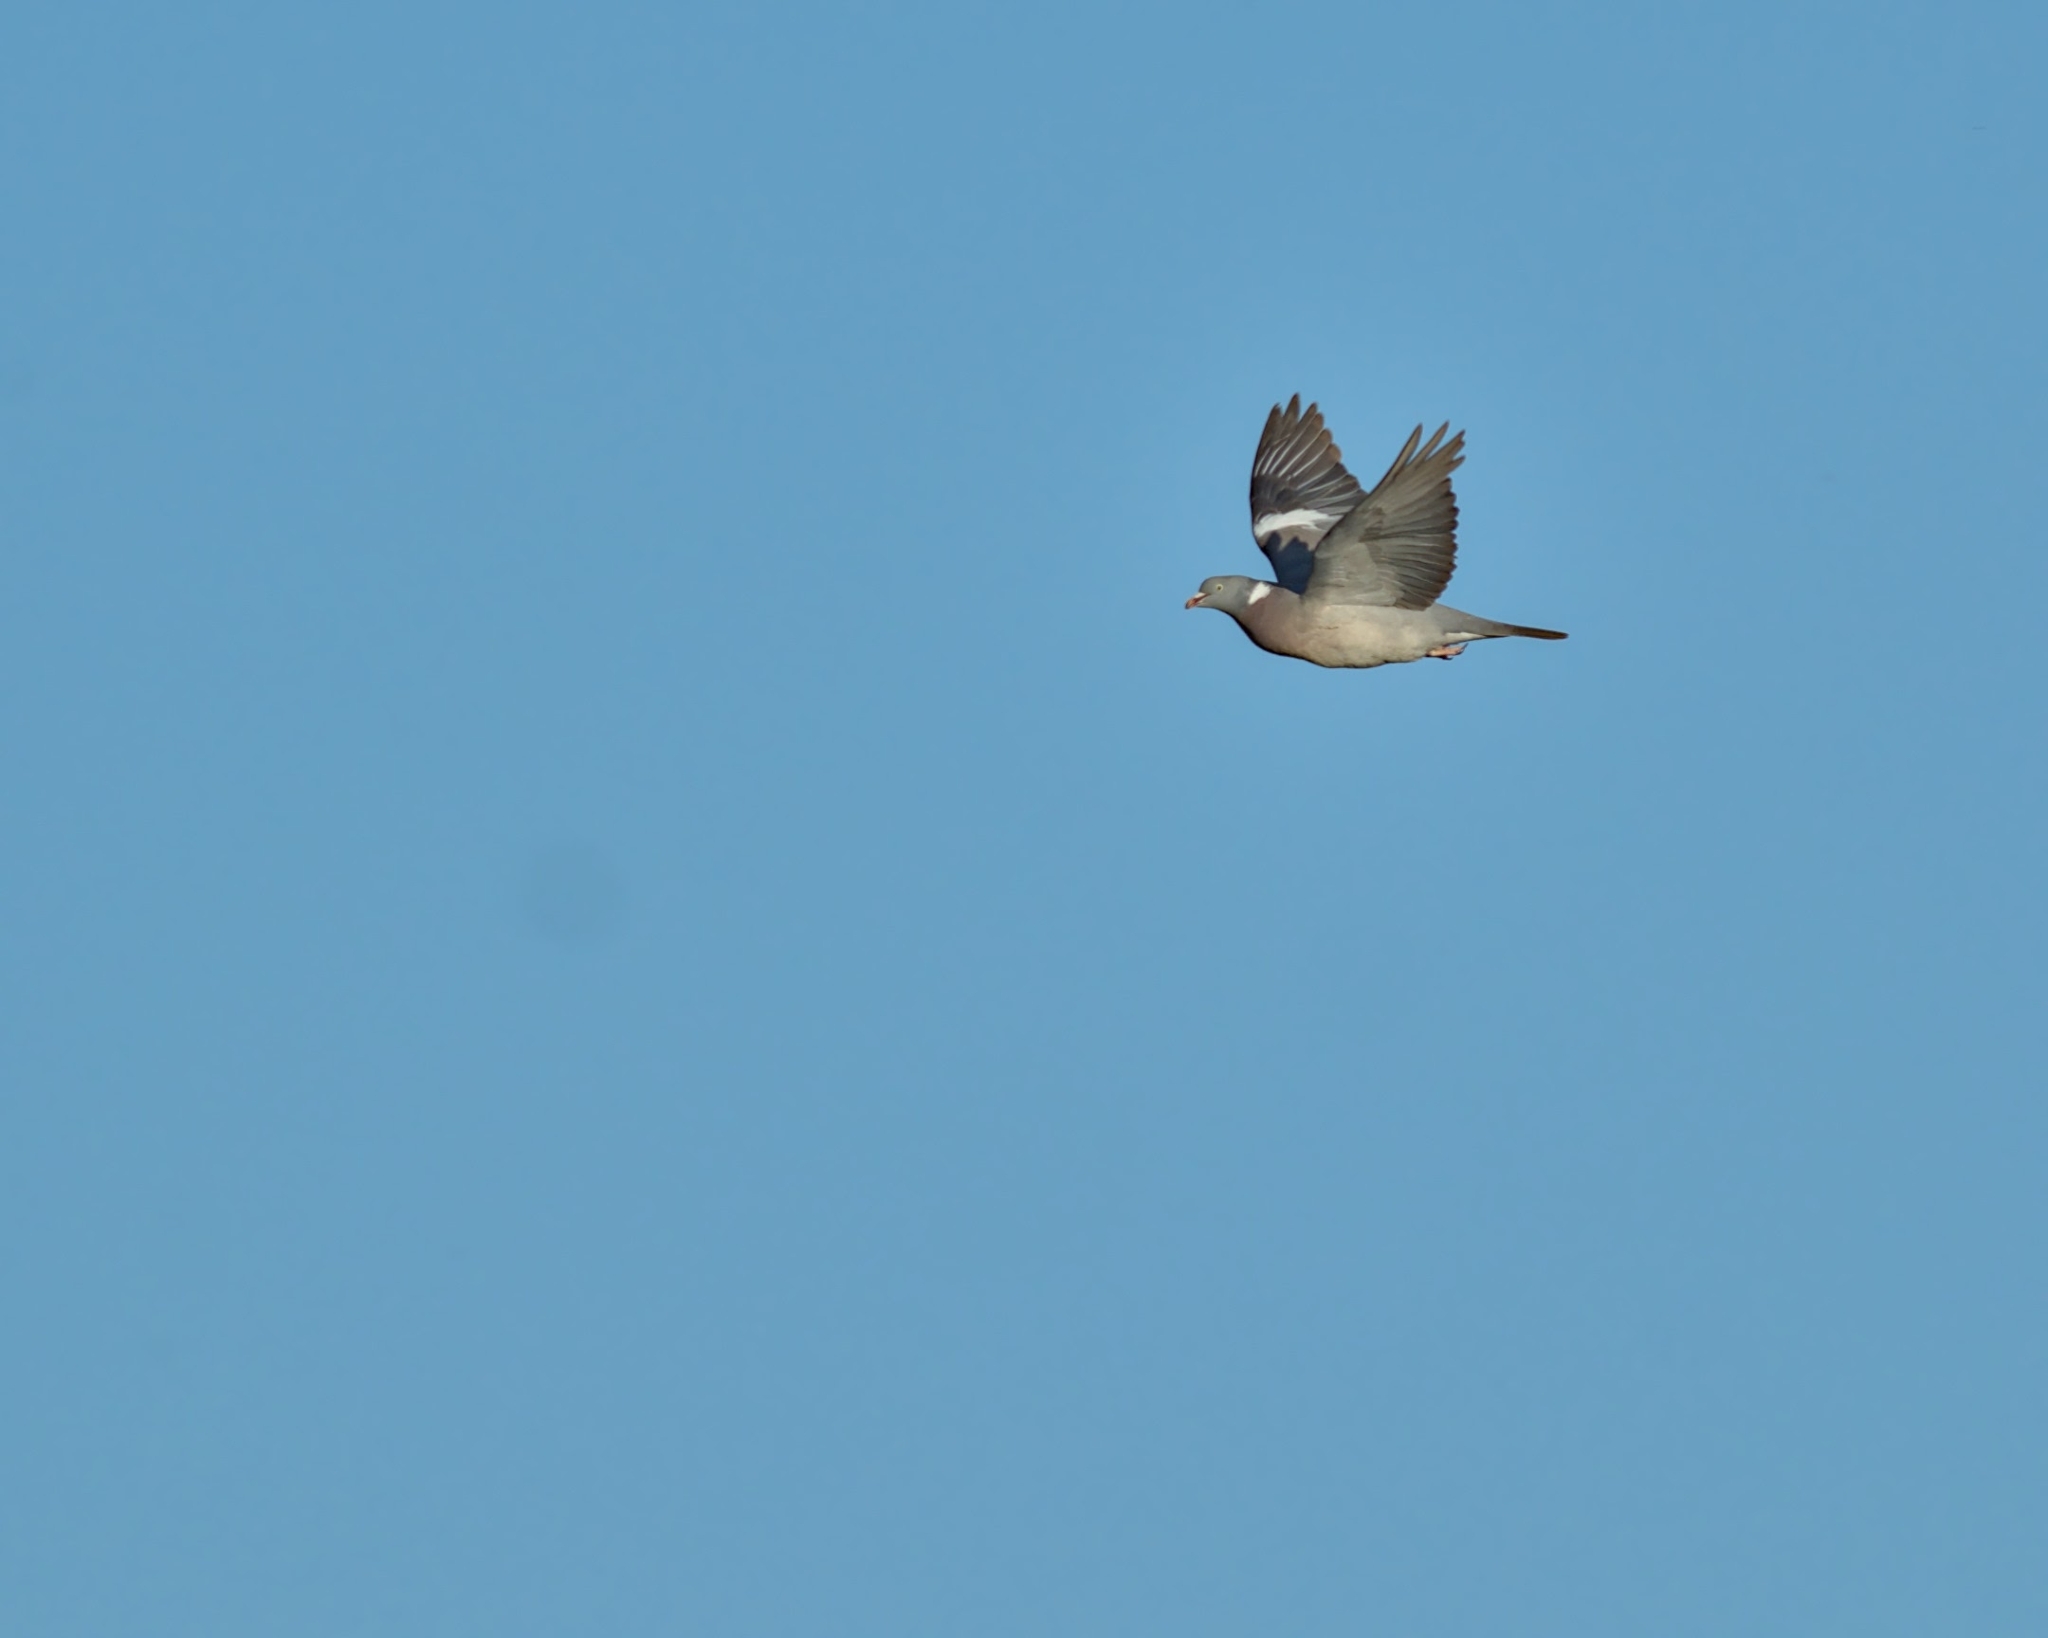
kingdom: Animalia
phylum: Chordata
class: Aves
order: Columbiformes
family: Columbidae
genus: Columba
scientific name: Columba palumbus
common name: Common wood pigeon
